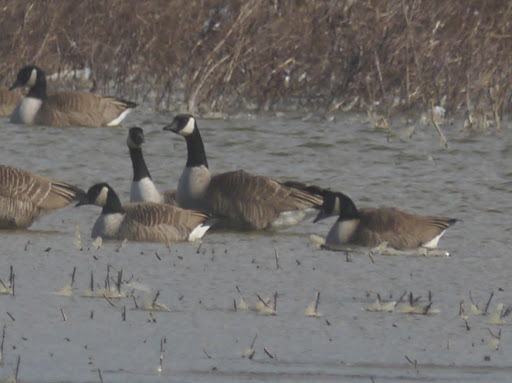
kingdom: Animalia
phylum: Chordata
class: Aves
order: Anseriformes
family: Anatidae
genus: Branta
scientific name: Branta canadensis
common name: Canada goose
